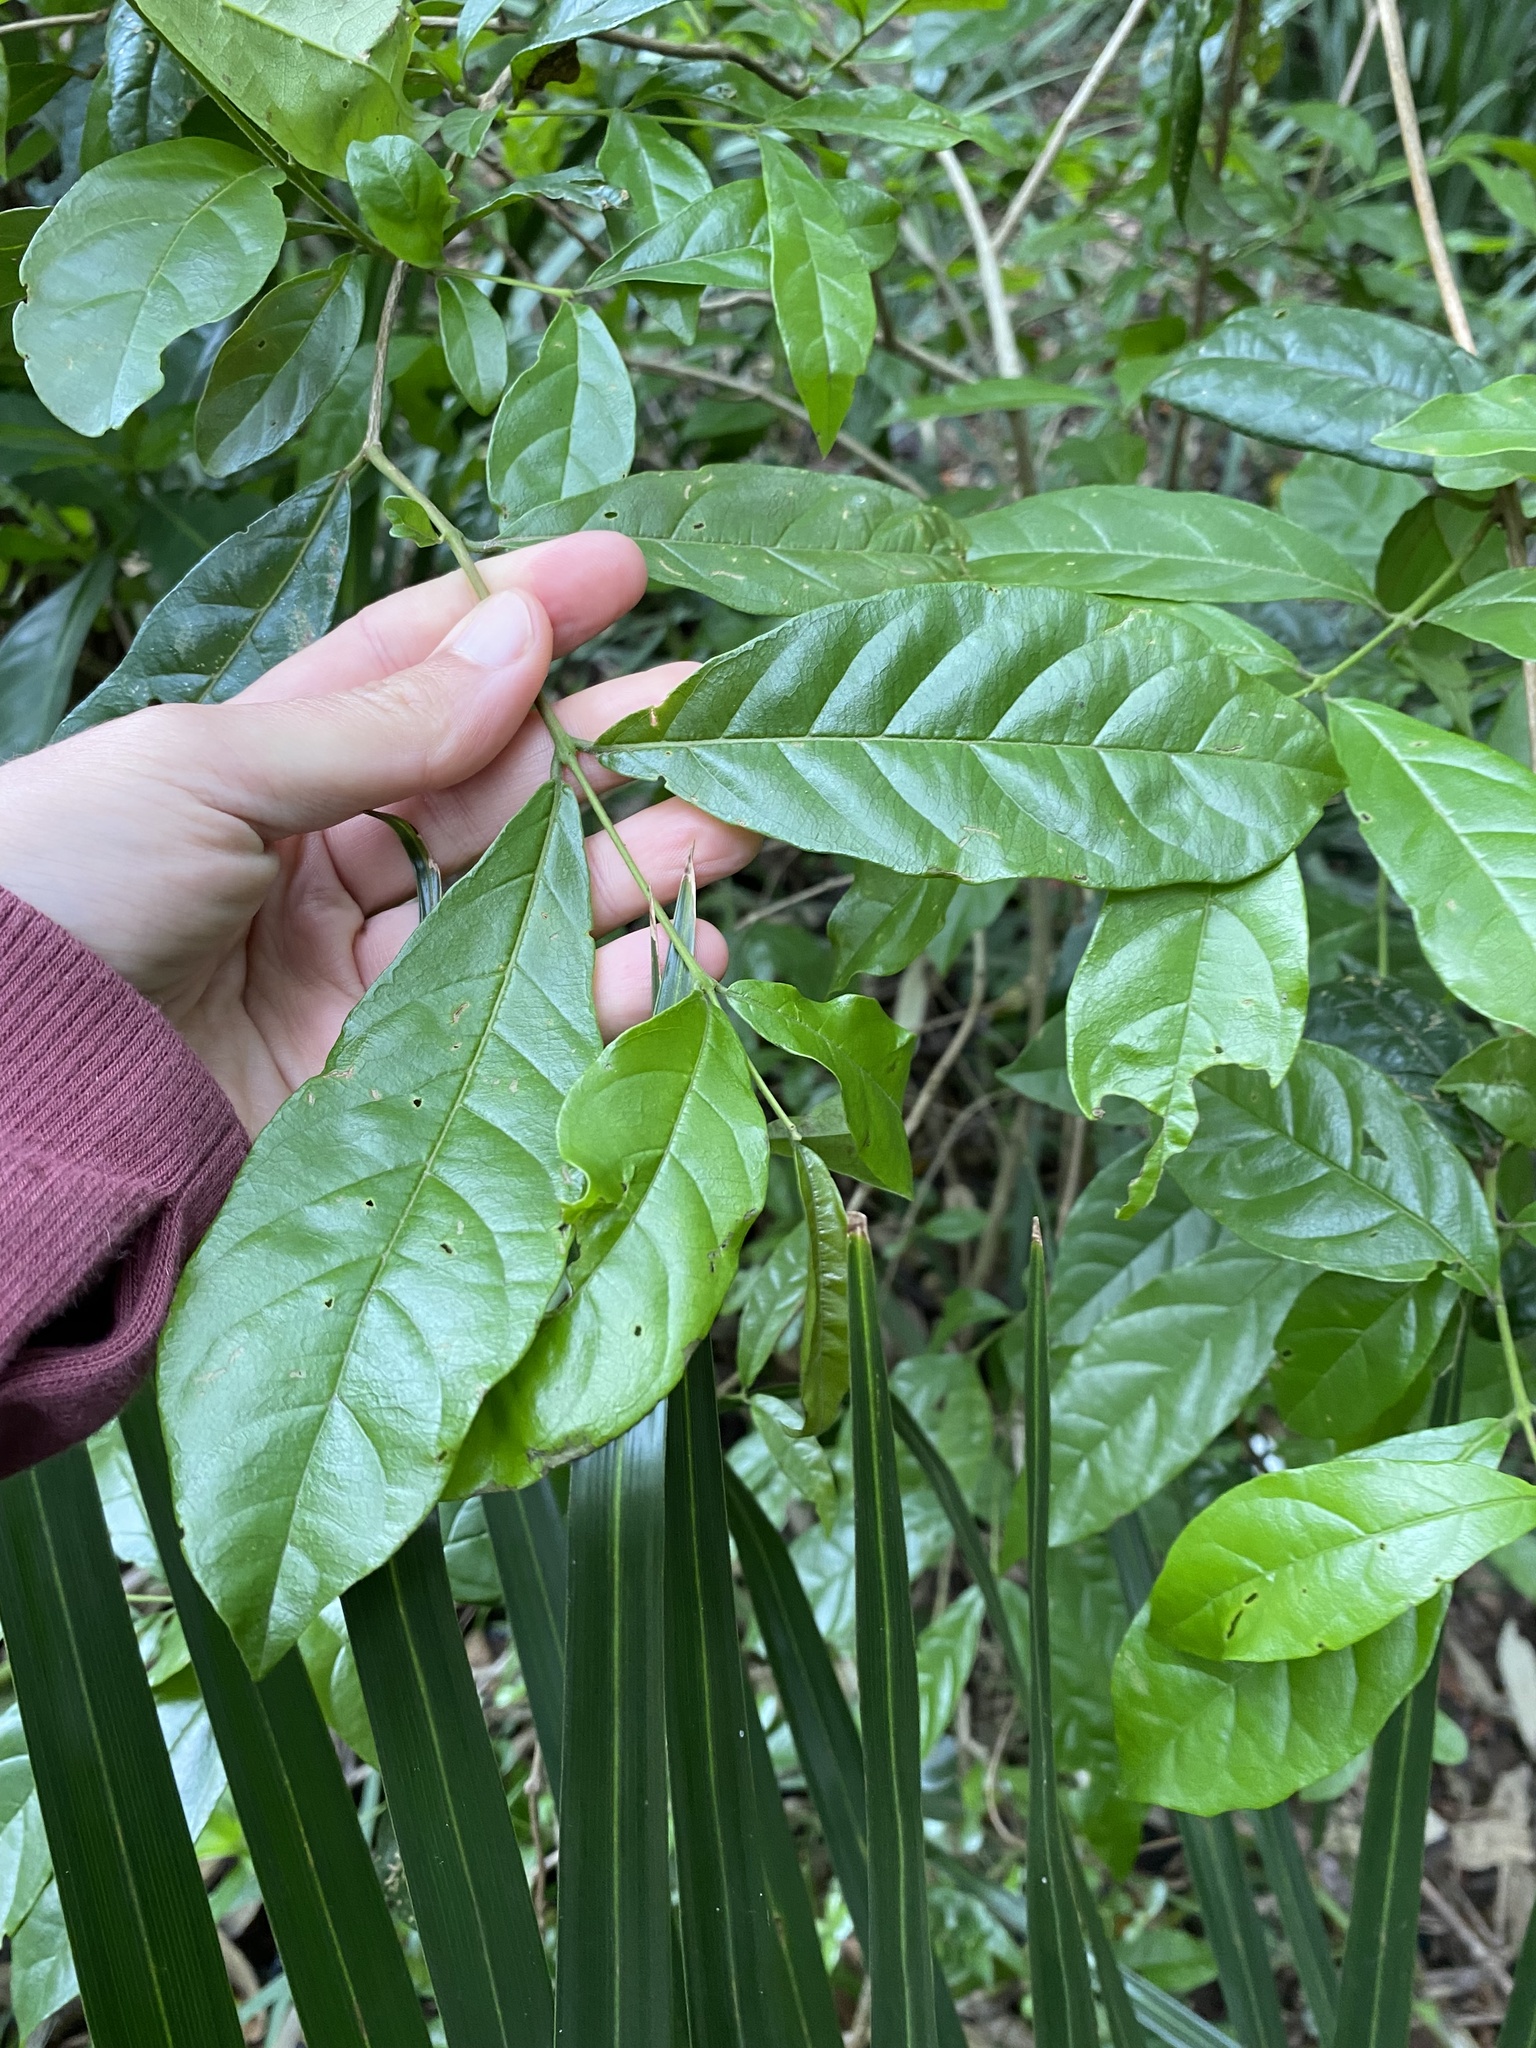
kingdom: Plantae
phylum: Tracheophyta
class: Magnoliopsida
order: Myrtales
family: Combretaceae
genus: Combretum
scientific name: Combretum kraussii
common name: Forest bushwillow
